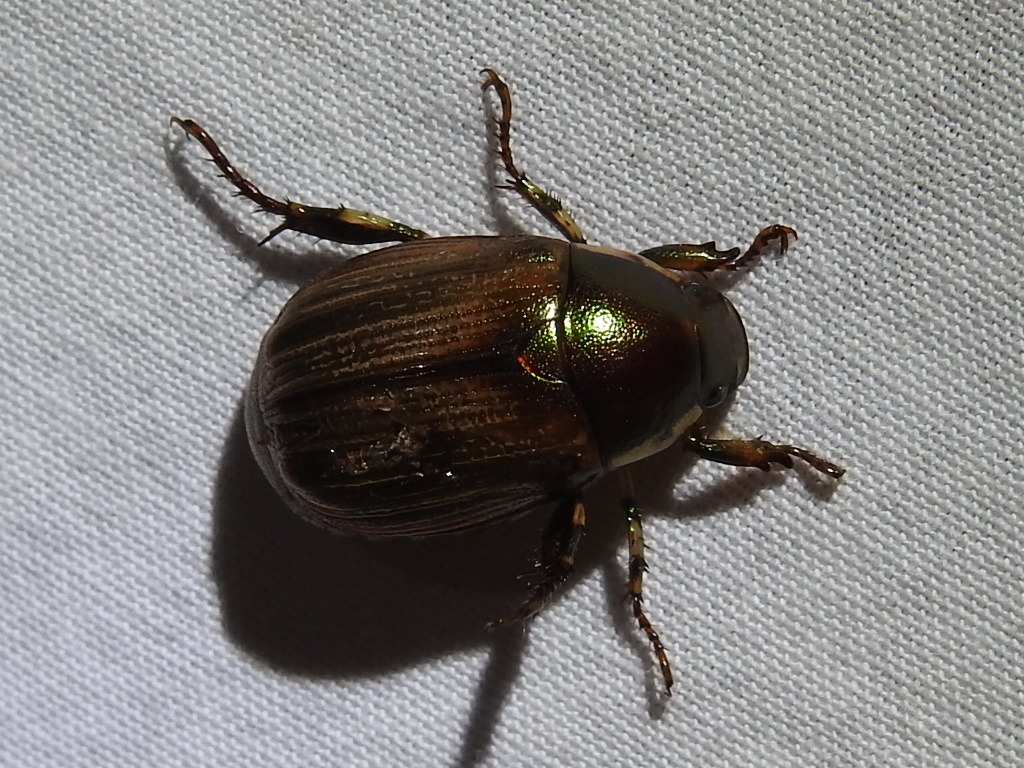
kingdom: Animalia
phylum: Arthropoda
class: Insecta
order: Coleoptera
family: Scarabaeidae
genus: Callistethus
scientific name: Callistethus marginatus
